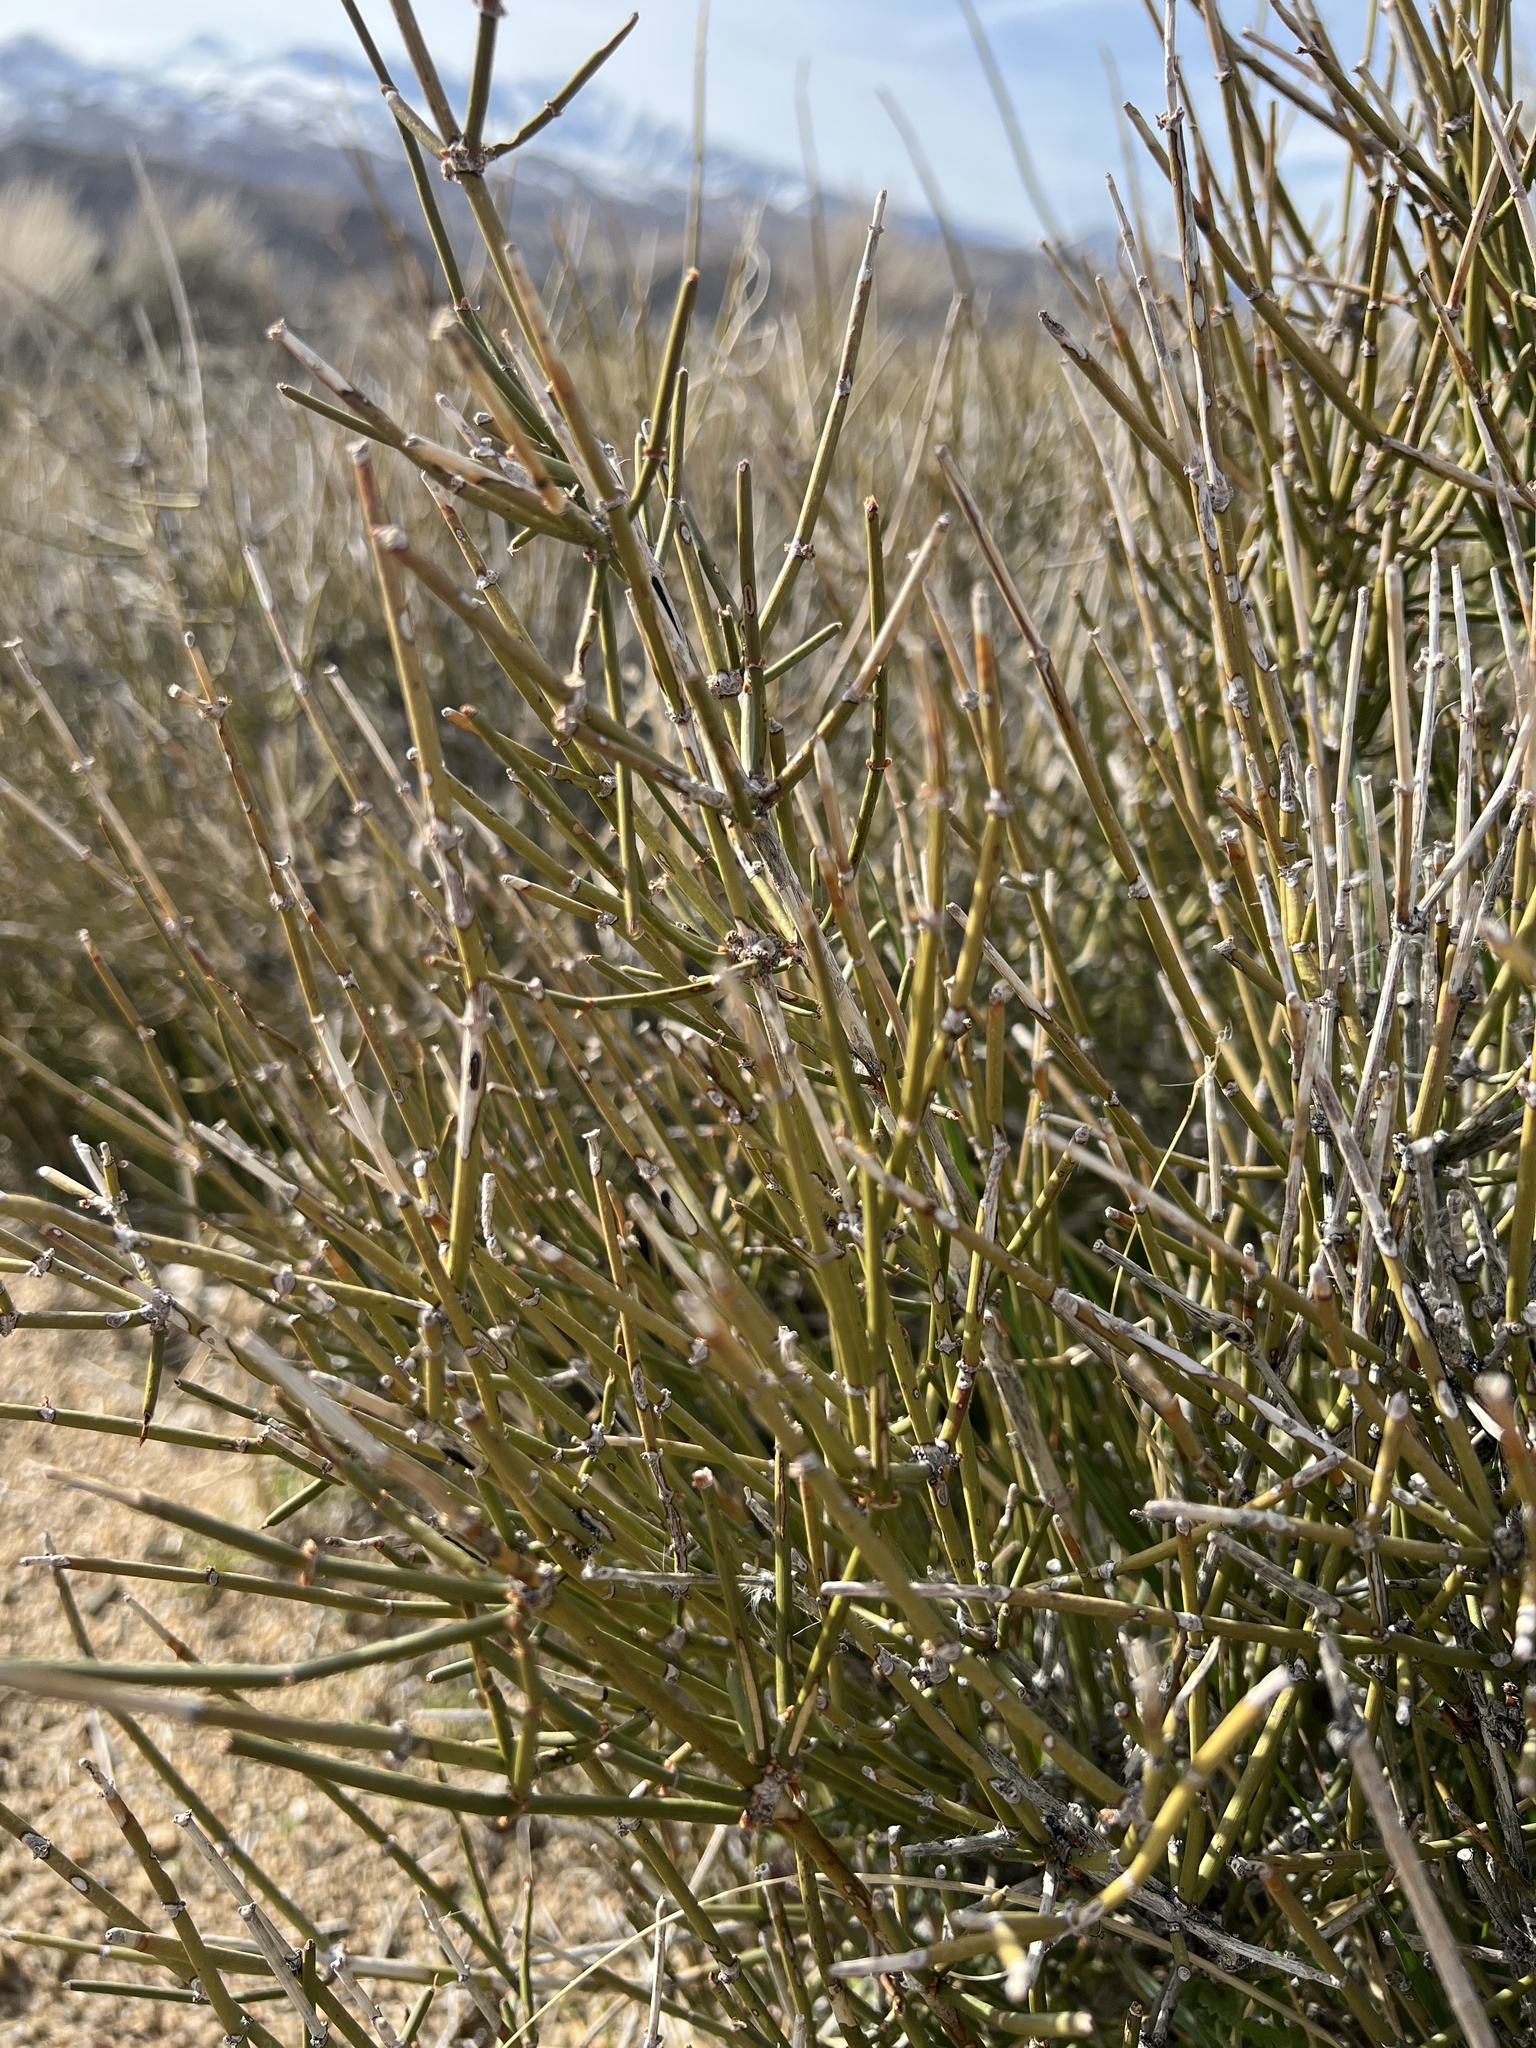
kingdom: Plantae
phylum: Tracheophyta
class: Gnetopsida
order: Ephedrales
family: Ephedraceae
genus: Ephedra
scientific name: Ephedra nevadensis
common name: Gray ephedra
